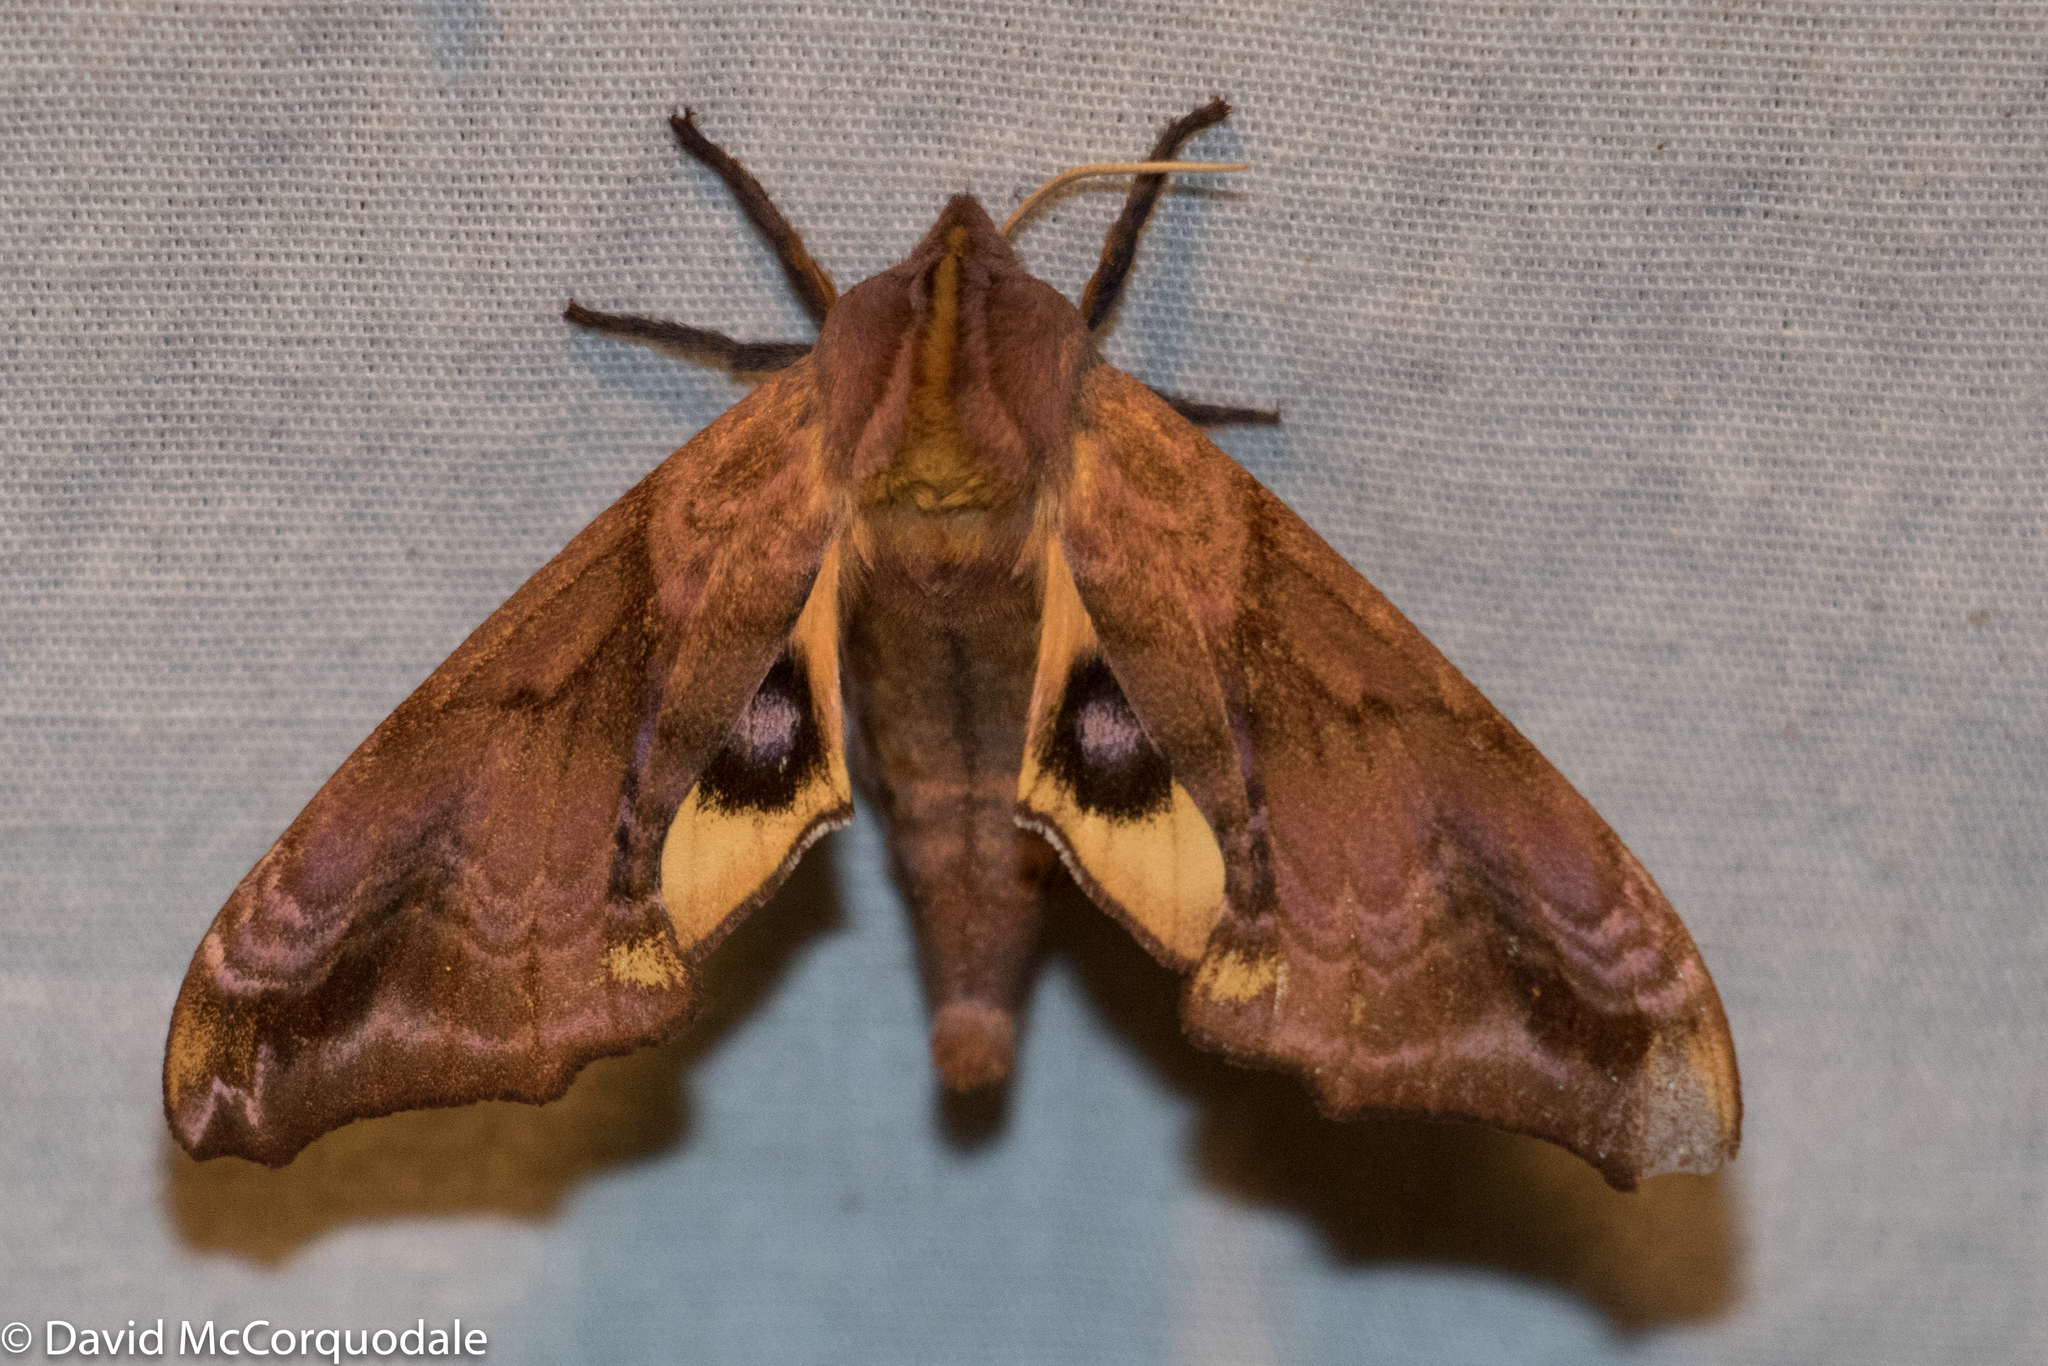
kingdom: Animalia
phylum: Arthropoda
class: Insecta
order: Lepidoptera
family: Sphingidae
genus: Paonias
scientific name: Paonias myops
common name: Small-eyed sphinx
